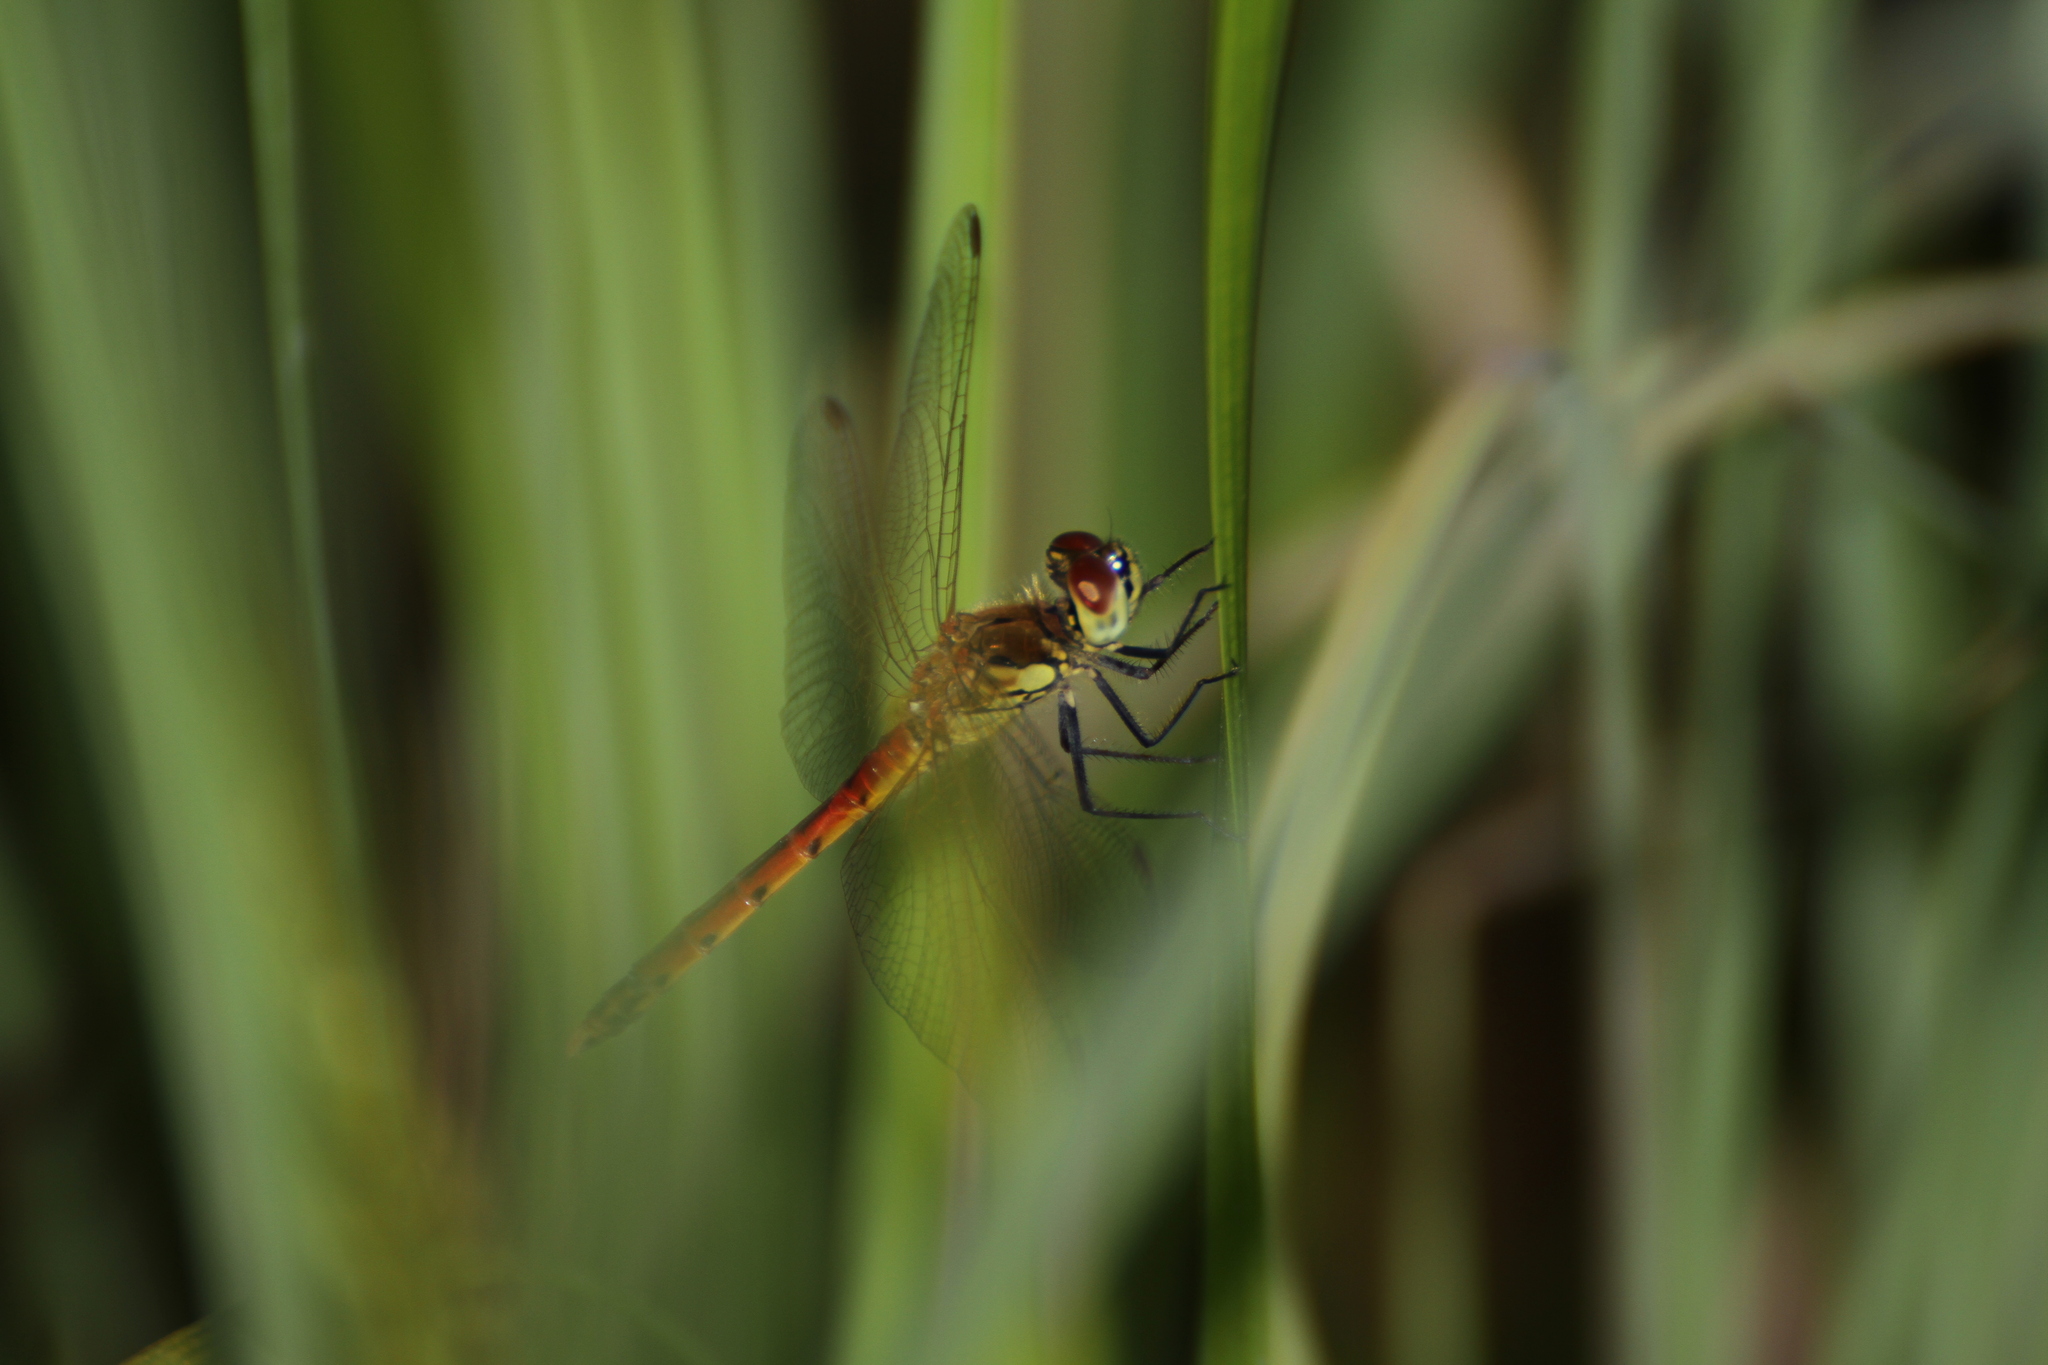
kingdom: Animalia
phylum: Arthropoda
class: Insecta
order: Odonata
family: Libellulidae
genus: Sympetrum
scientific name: Sympetrum depressiusculum
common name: Spotted darter
